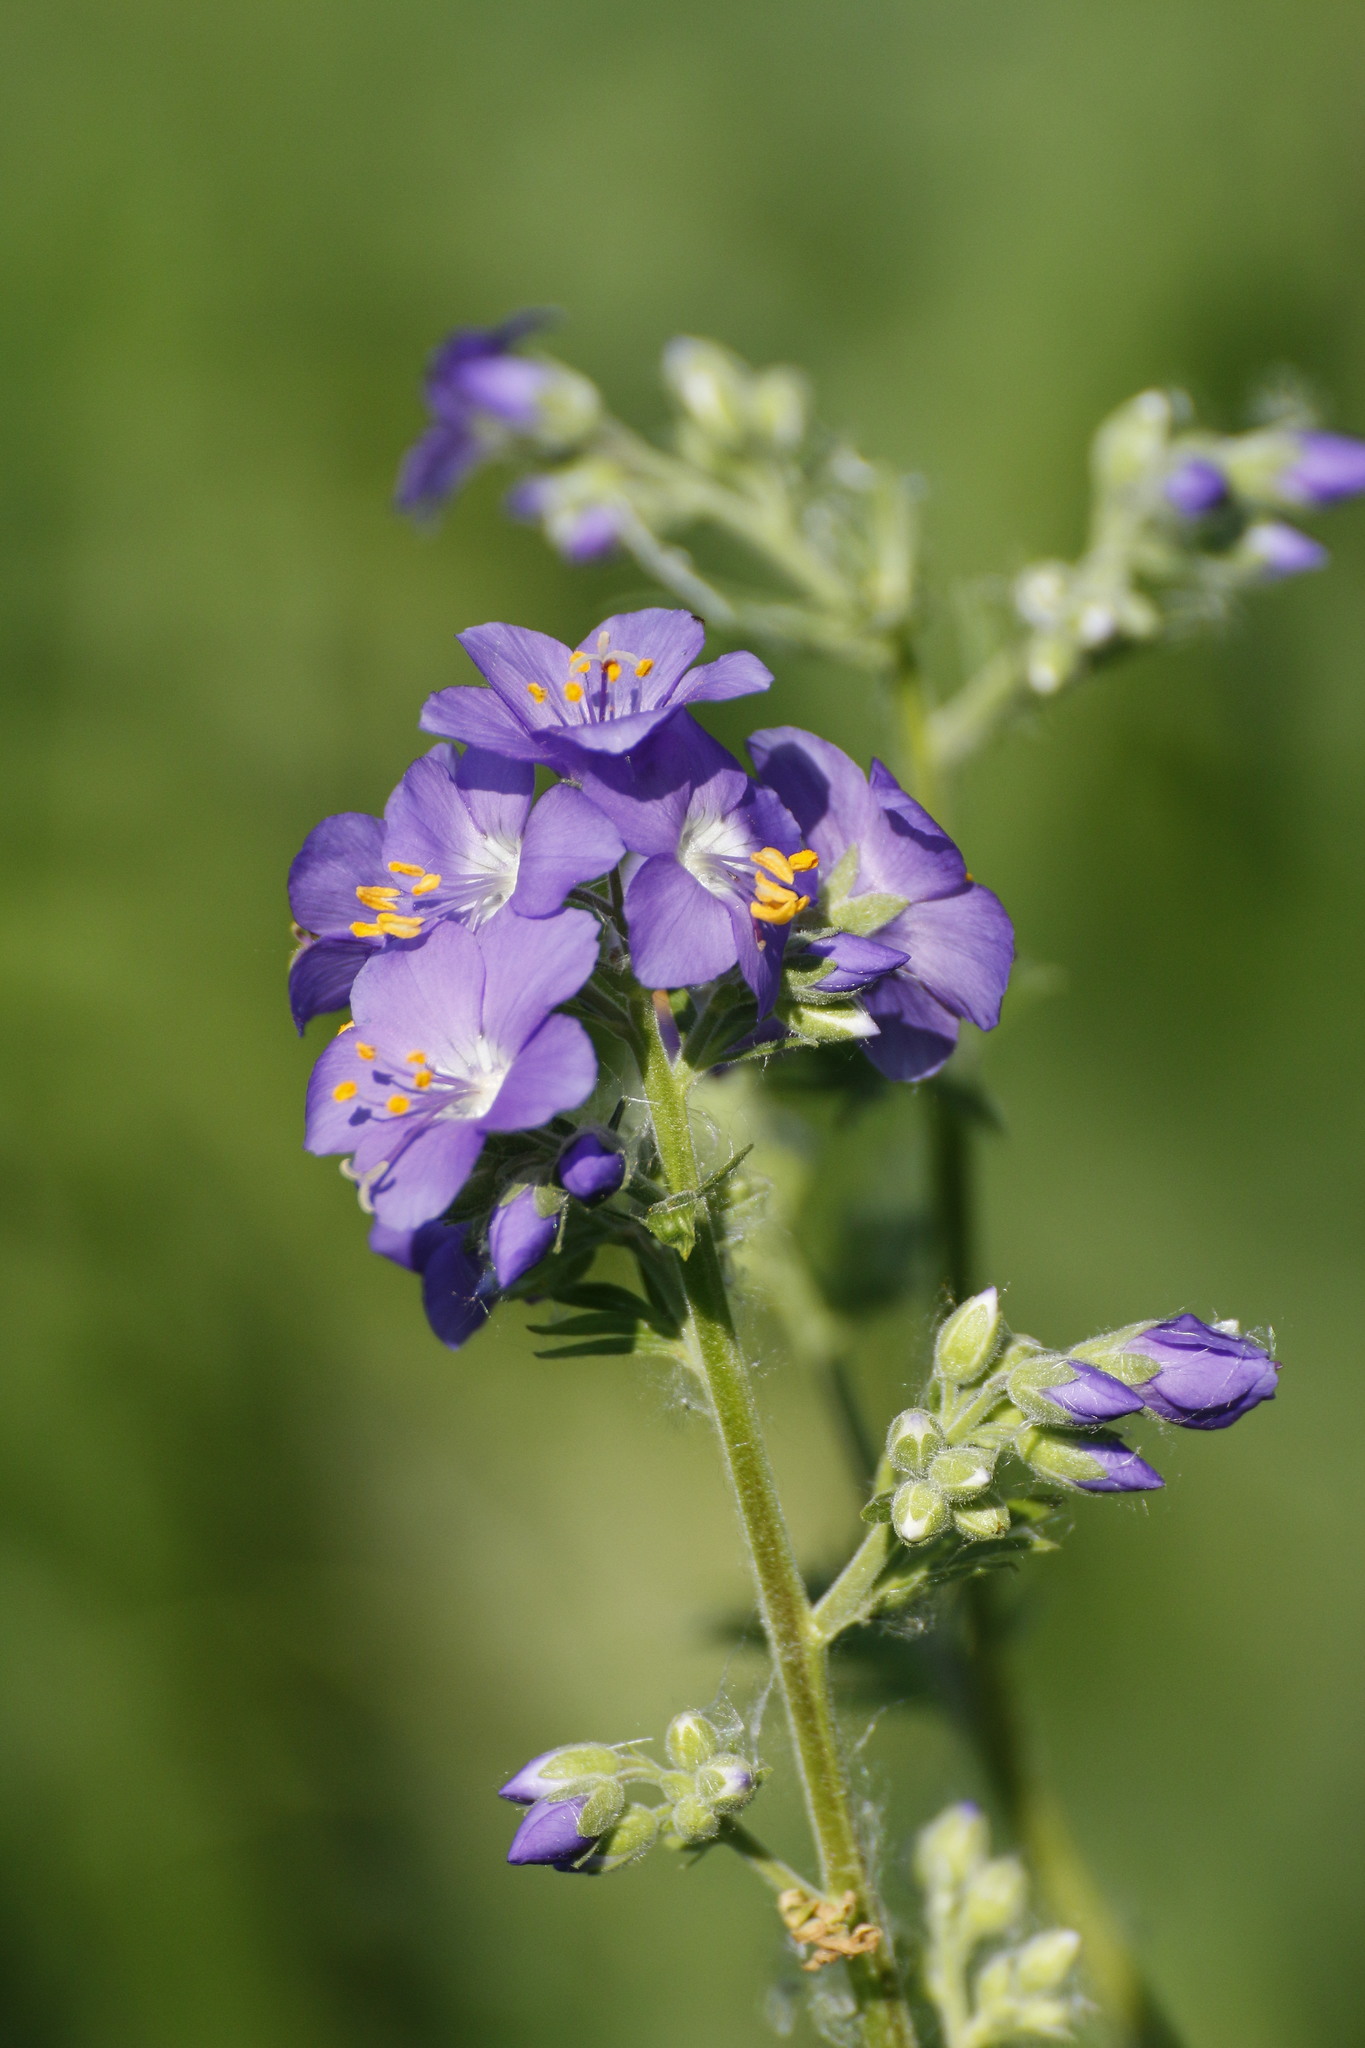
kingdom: Plantae
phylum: Tracheophyta
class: Magnoliopsida
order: Ericales
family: Polemoniaceae
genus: Polemonium
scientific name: Polemonium caeruleum
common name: Jacob's-ladder
